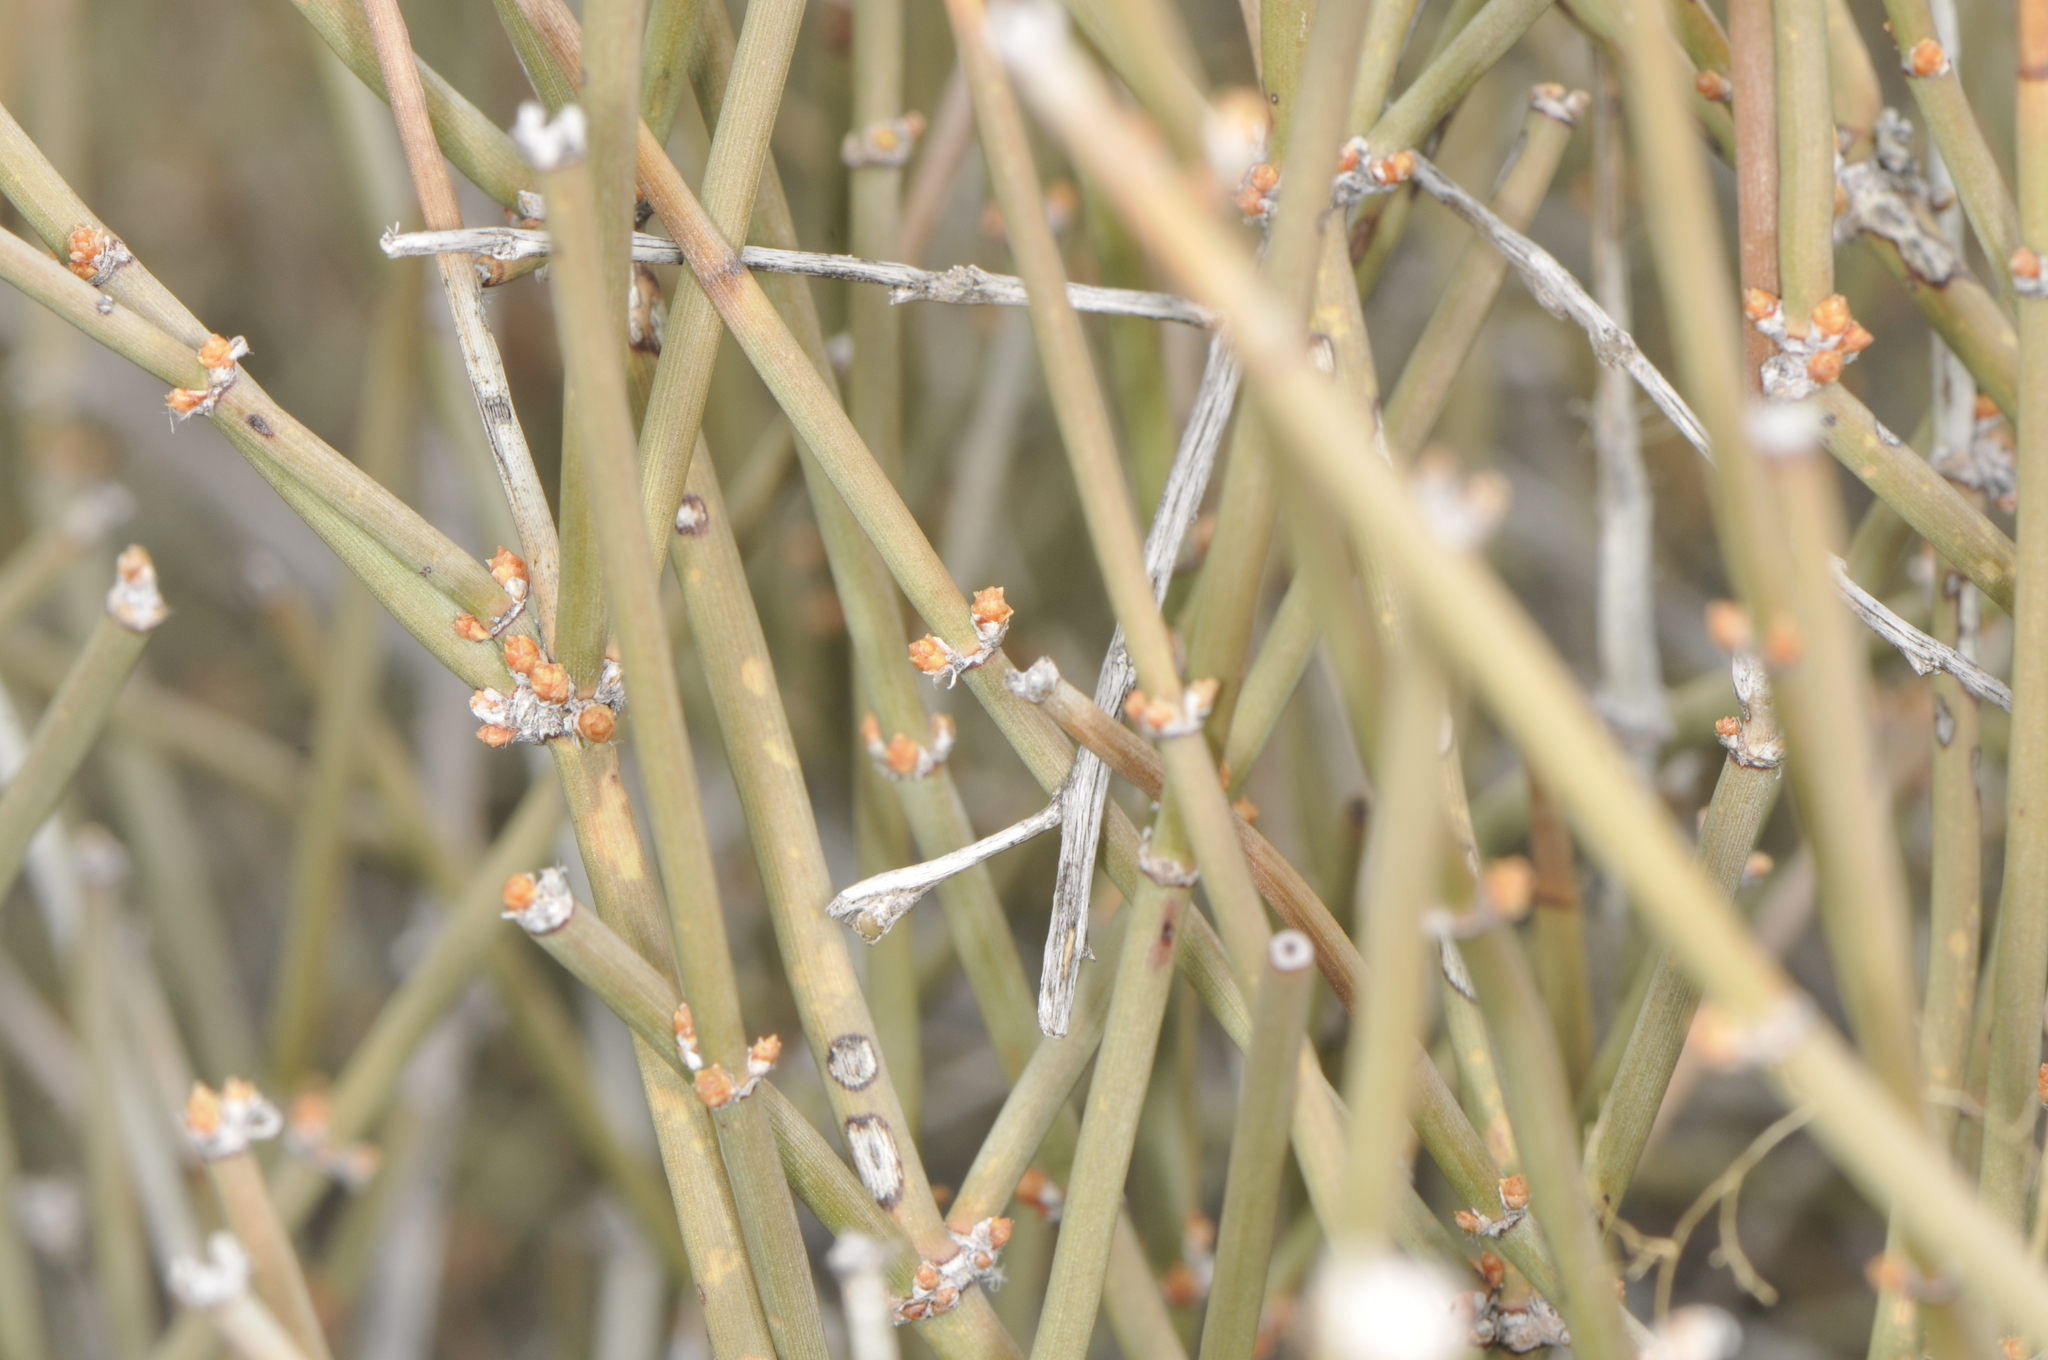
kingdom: Plantae
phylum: Tracheophyta
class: Gnetopsida
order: Ephedrales
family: Ephedraceae
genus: Ephedra
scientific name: Ephedra torreyana
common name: Torrey ephedra
